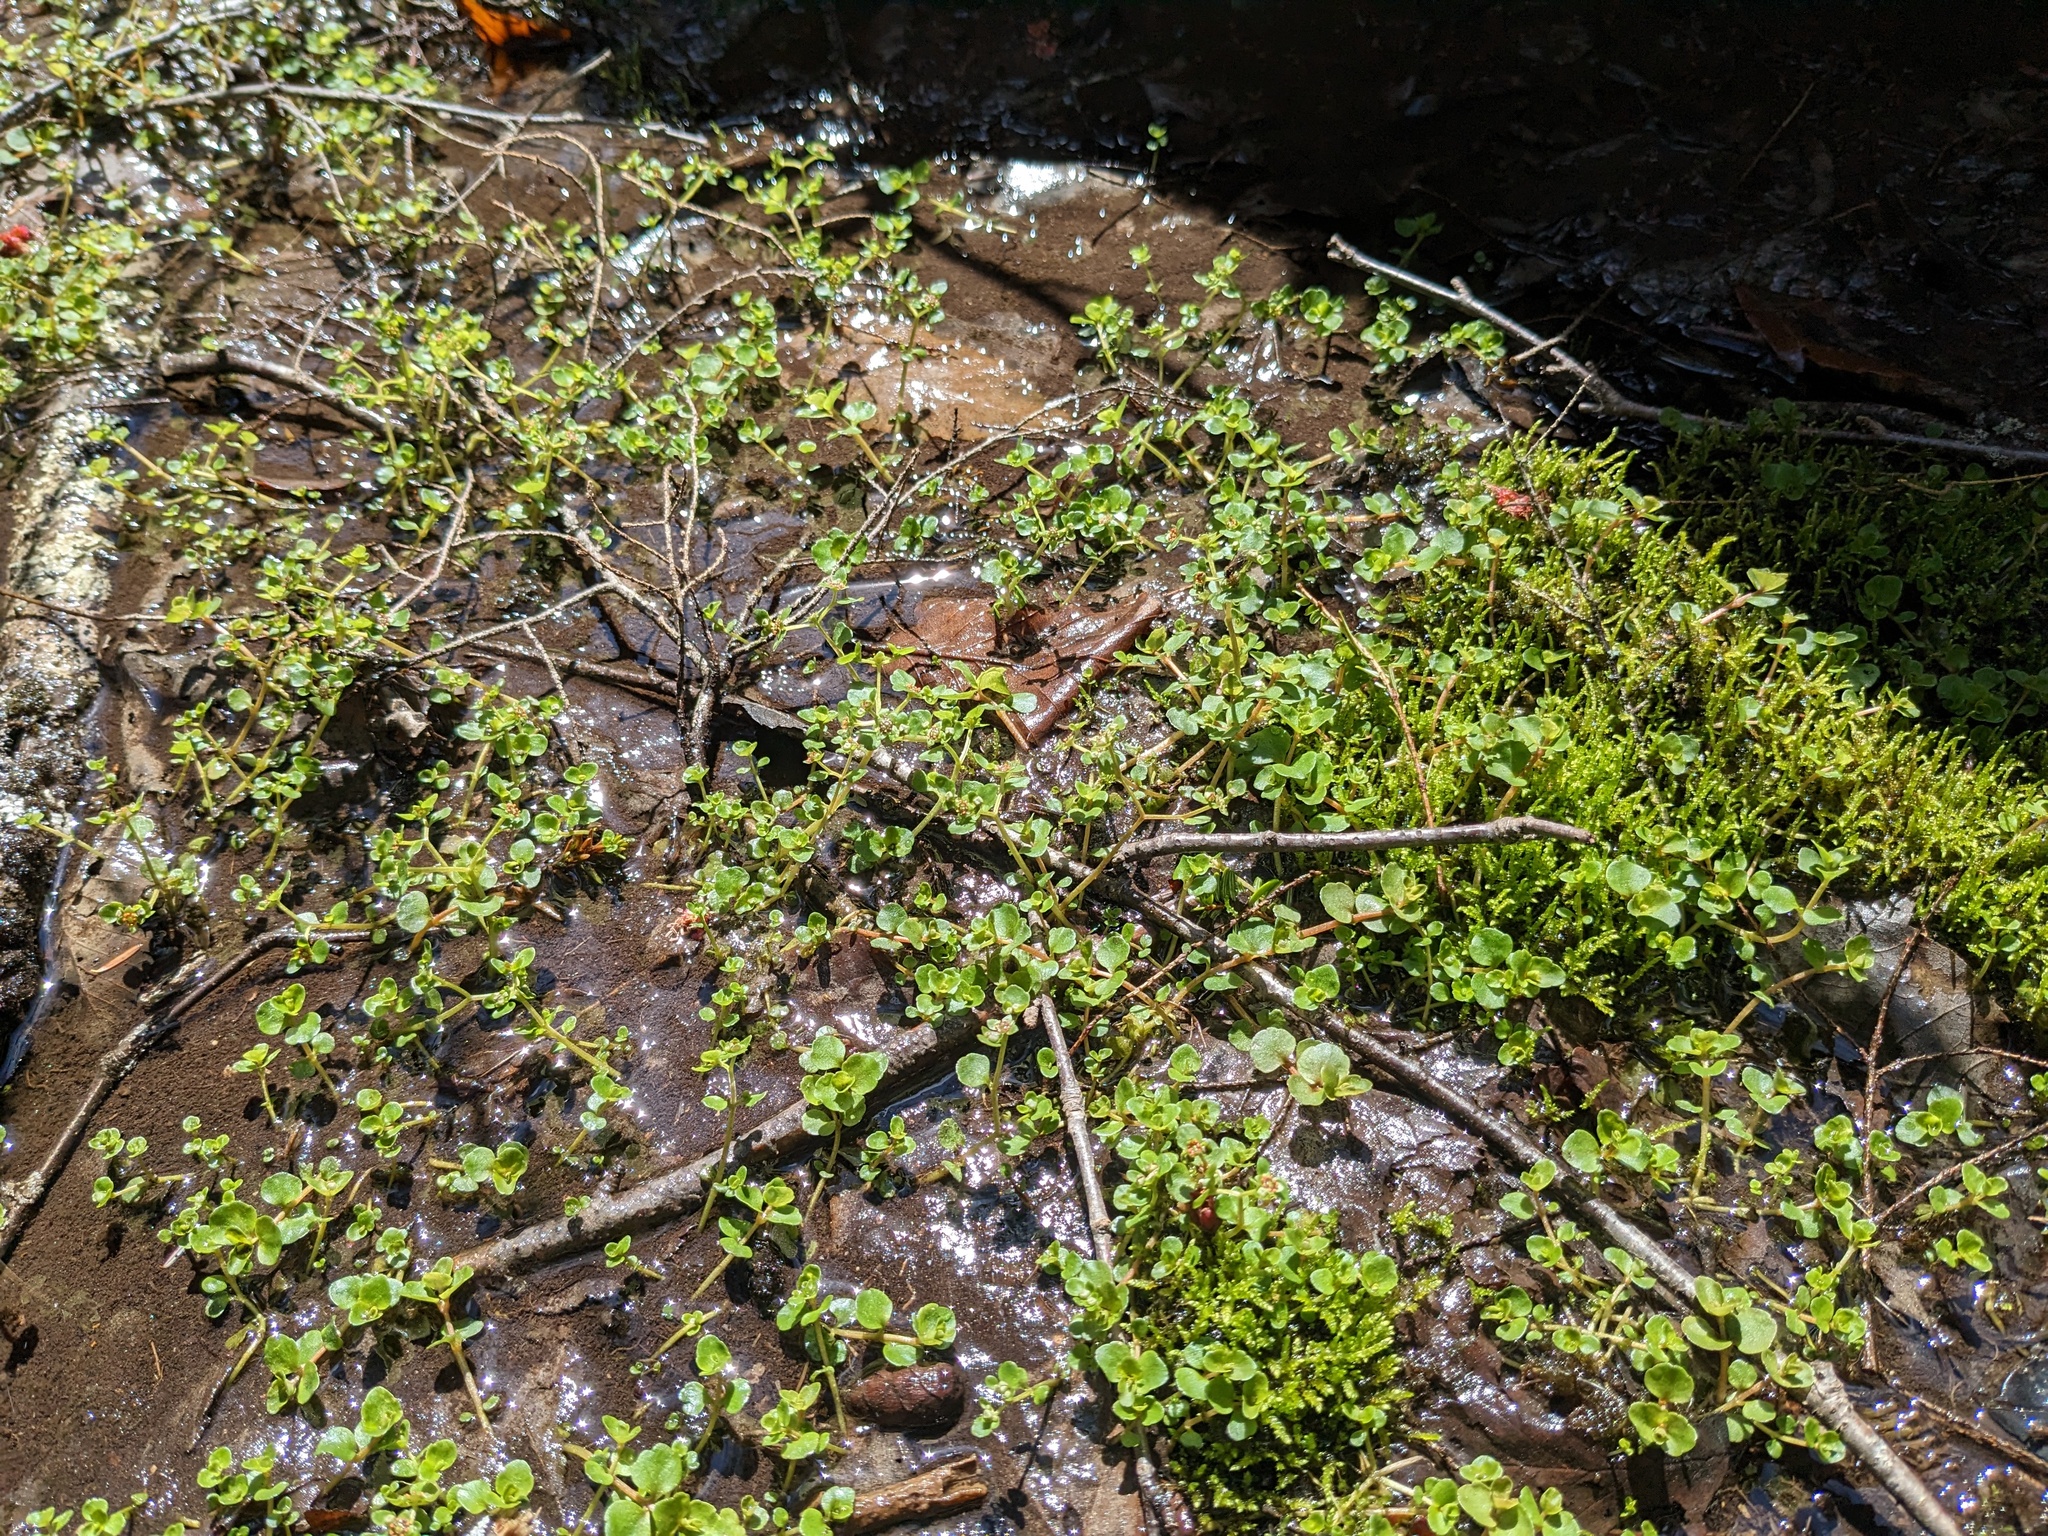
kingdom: Plantae
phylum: Tracheophyta
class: Magnoliopsida
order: Saxifragales
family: Saxifragaceae
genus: Chrysosplenium
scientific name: Chrysosplenium americanum
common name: American golden-saxifrage
